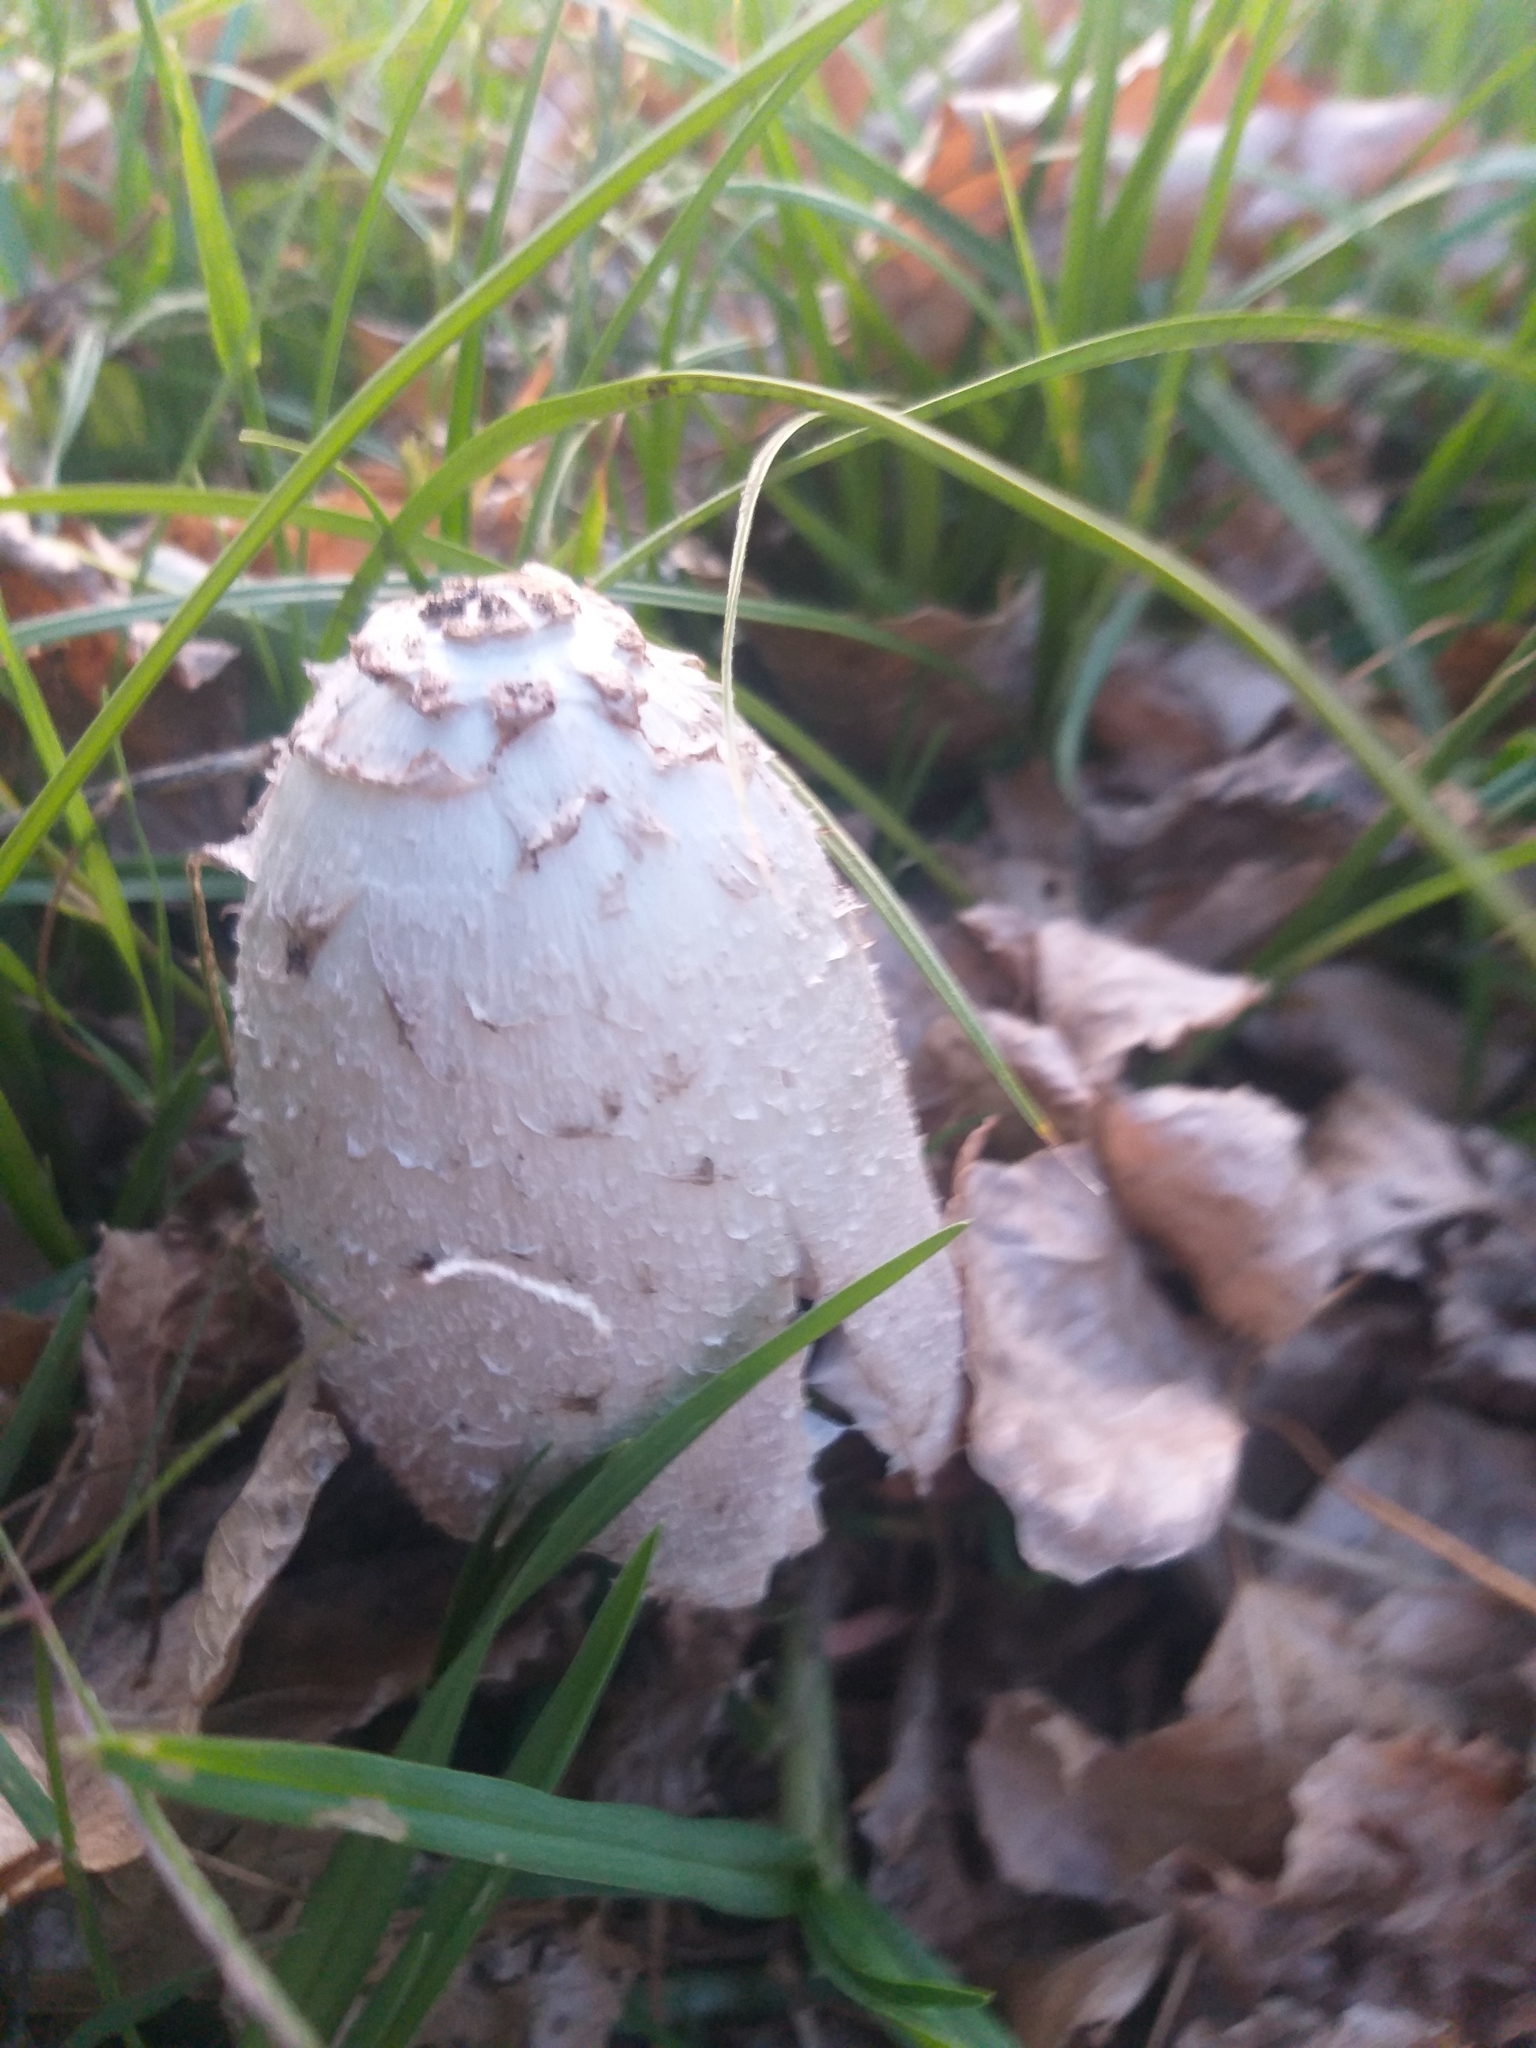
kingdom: Fungi
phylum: Basidiomycota
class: Agaricomycetes
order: Agaricales
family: Agaricaceae
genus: Coprinus
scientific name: Coprinus comatus
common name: Lawyer's wig
